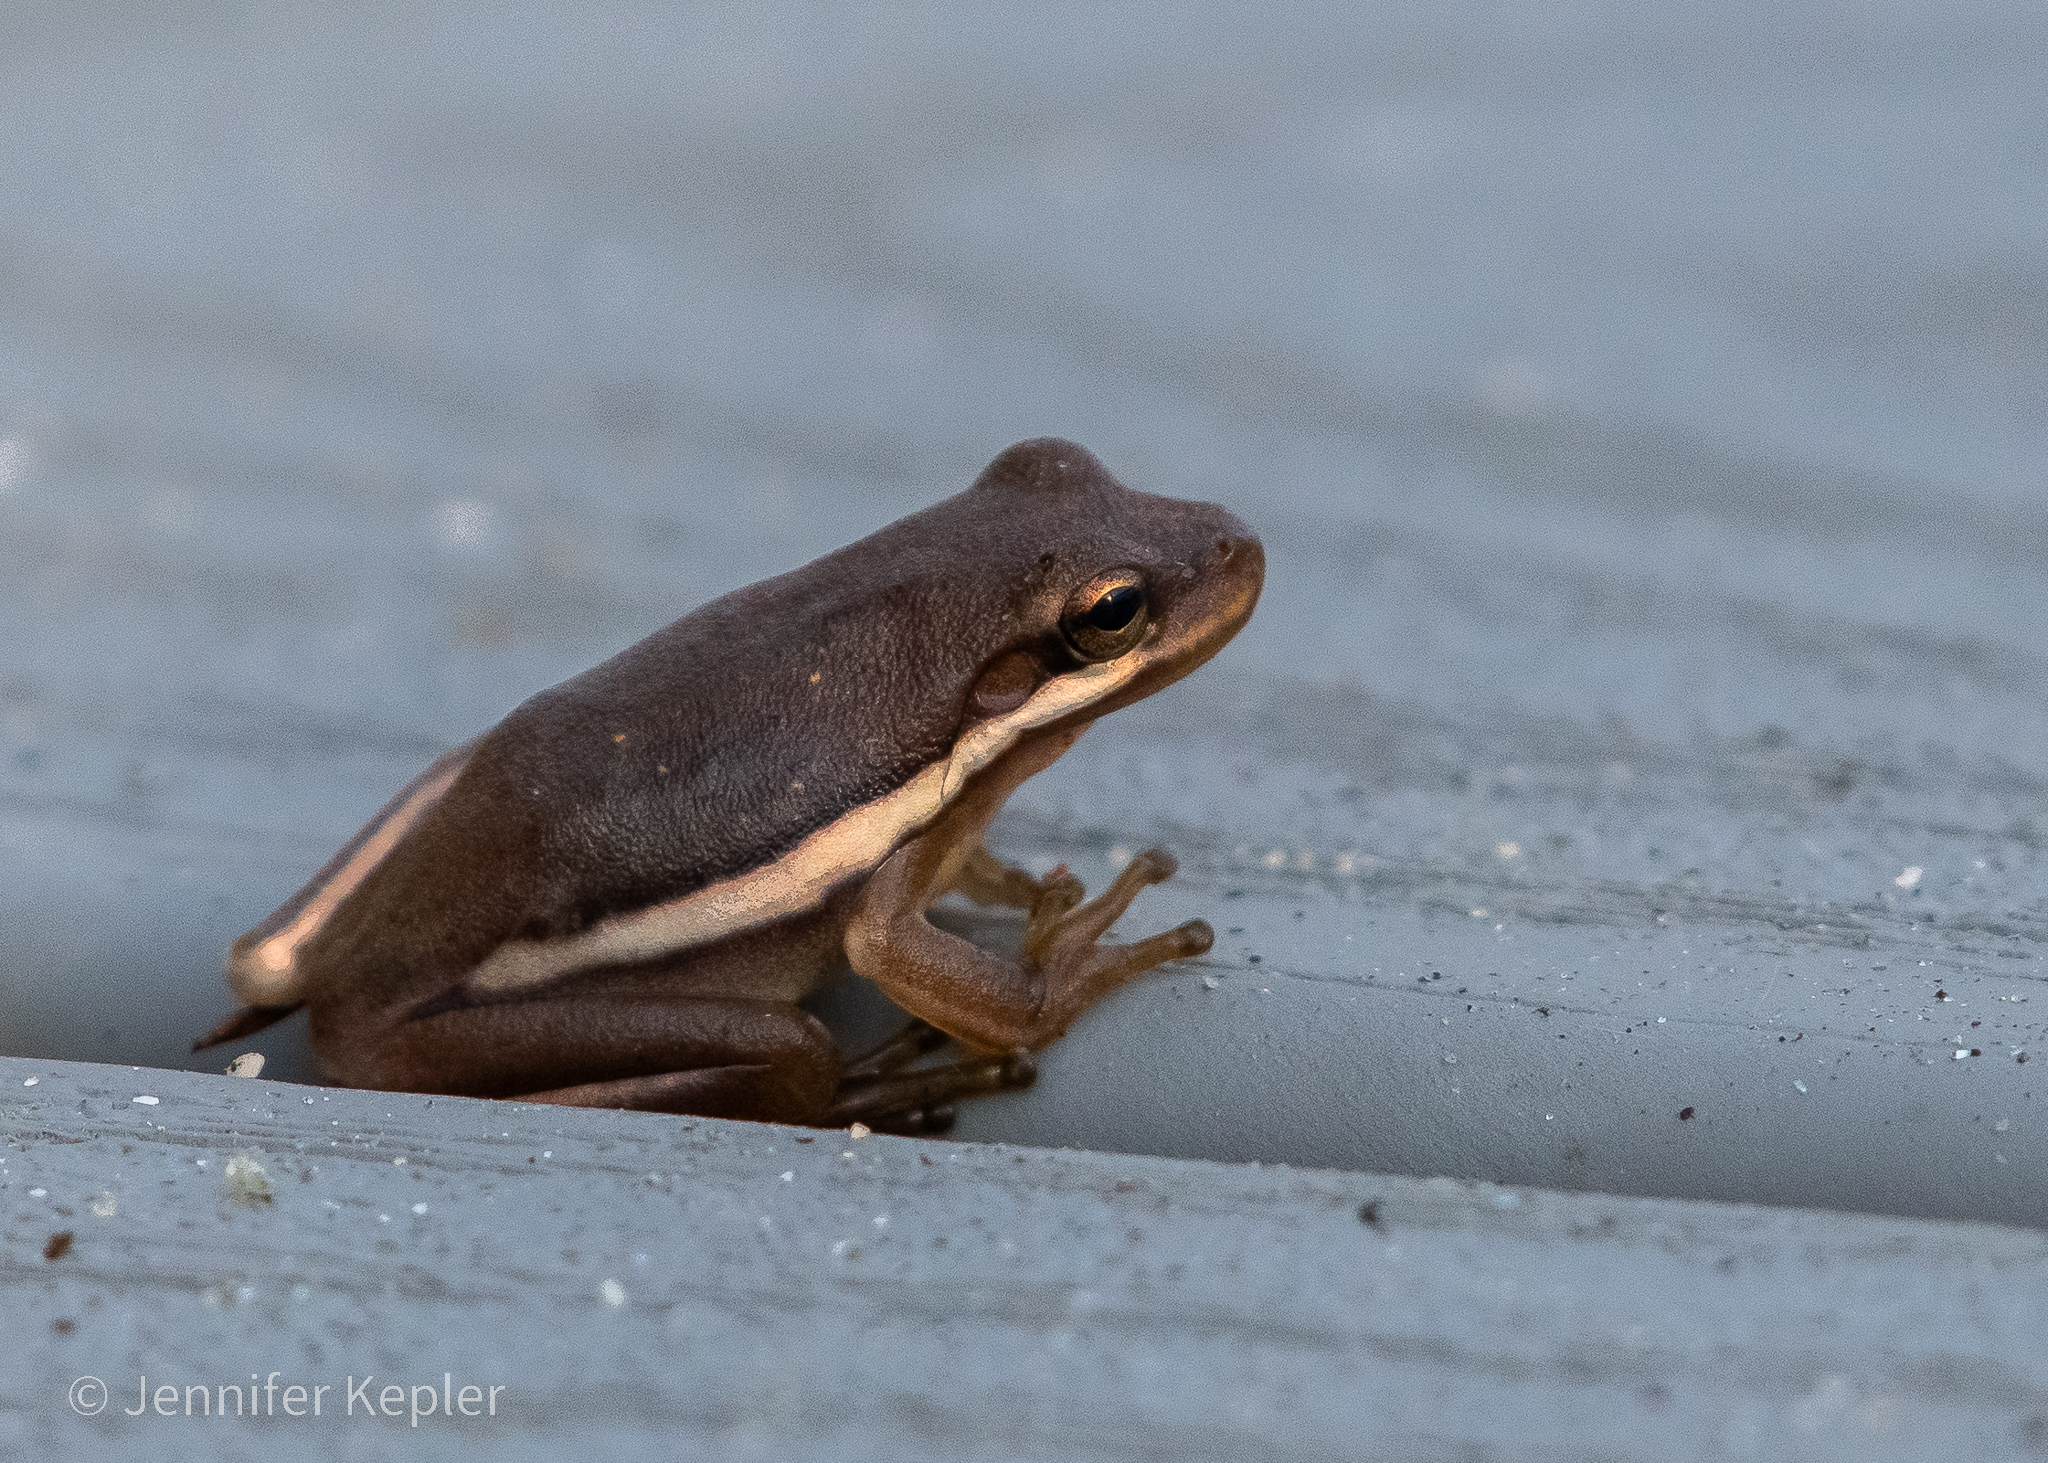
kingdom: Animalia
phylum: Chordata
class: Amphibia
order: Anura
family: Hylidae
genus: Dryophytes
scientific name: Dryophytes cinereus
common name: Green treefrog
